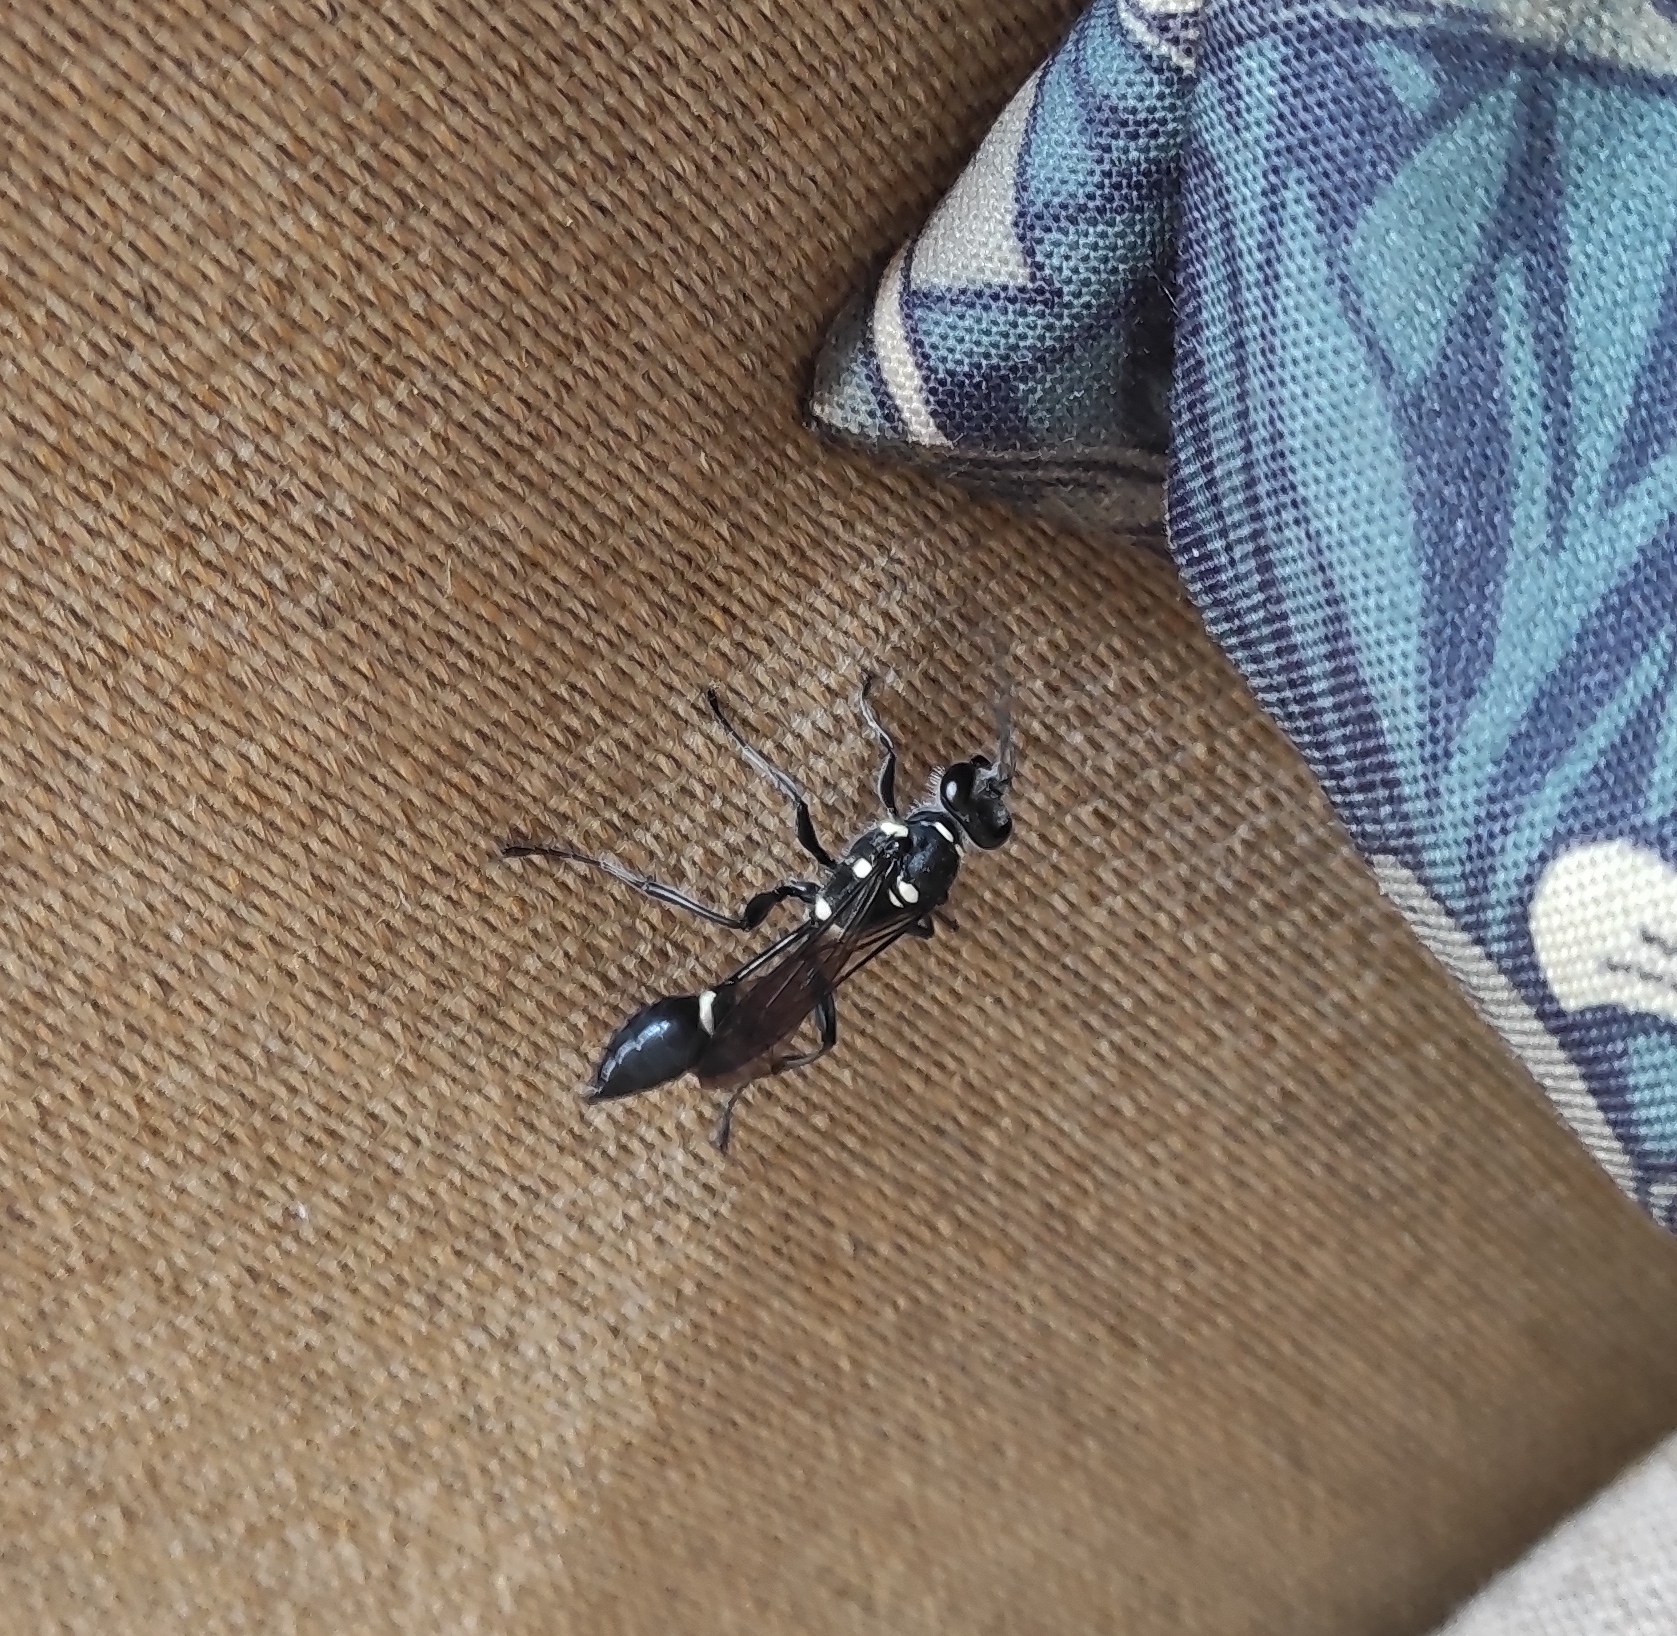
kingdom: Animalia
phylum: Arthropoda
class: Insecta
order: Hymenoptera
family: Sphecidae
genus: Sceliphron
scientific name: Sceliphron argentifrons
